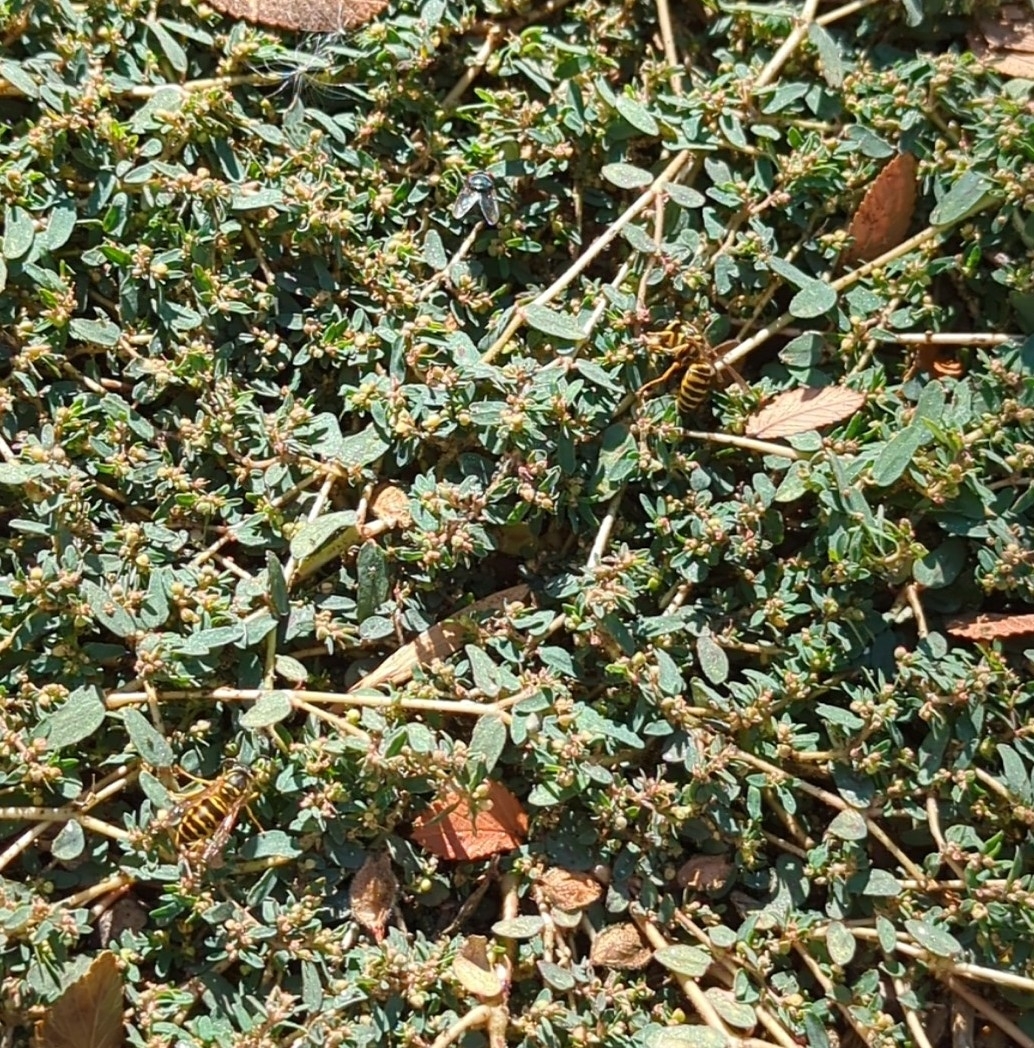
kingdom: Animalia
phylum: Arthropoda
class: Insecta
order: Hymenoptera
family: Vespidae
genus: Vespula
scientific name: Vespula maculifrons
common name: Eastern yellowjacket
